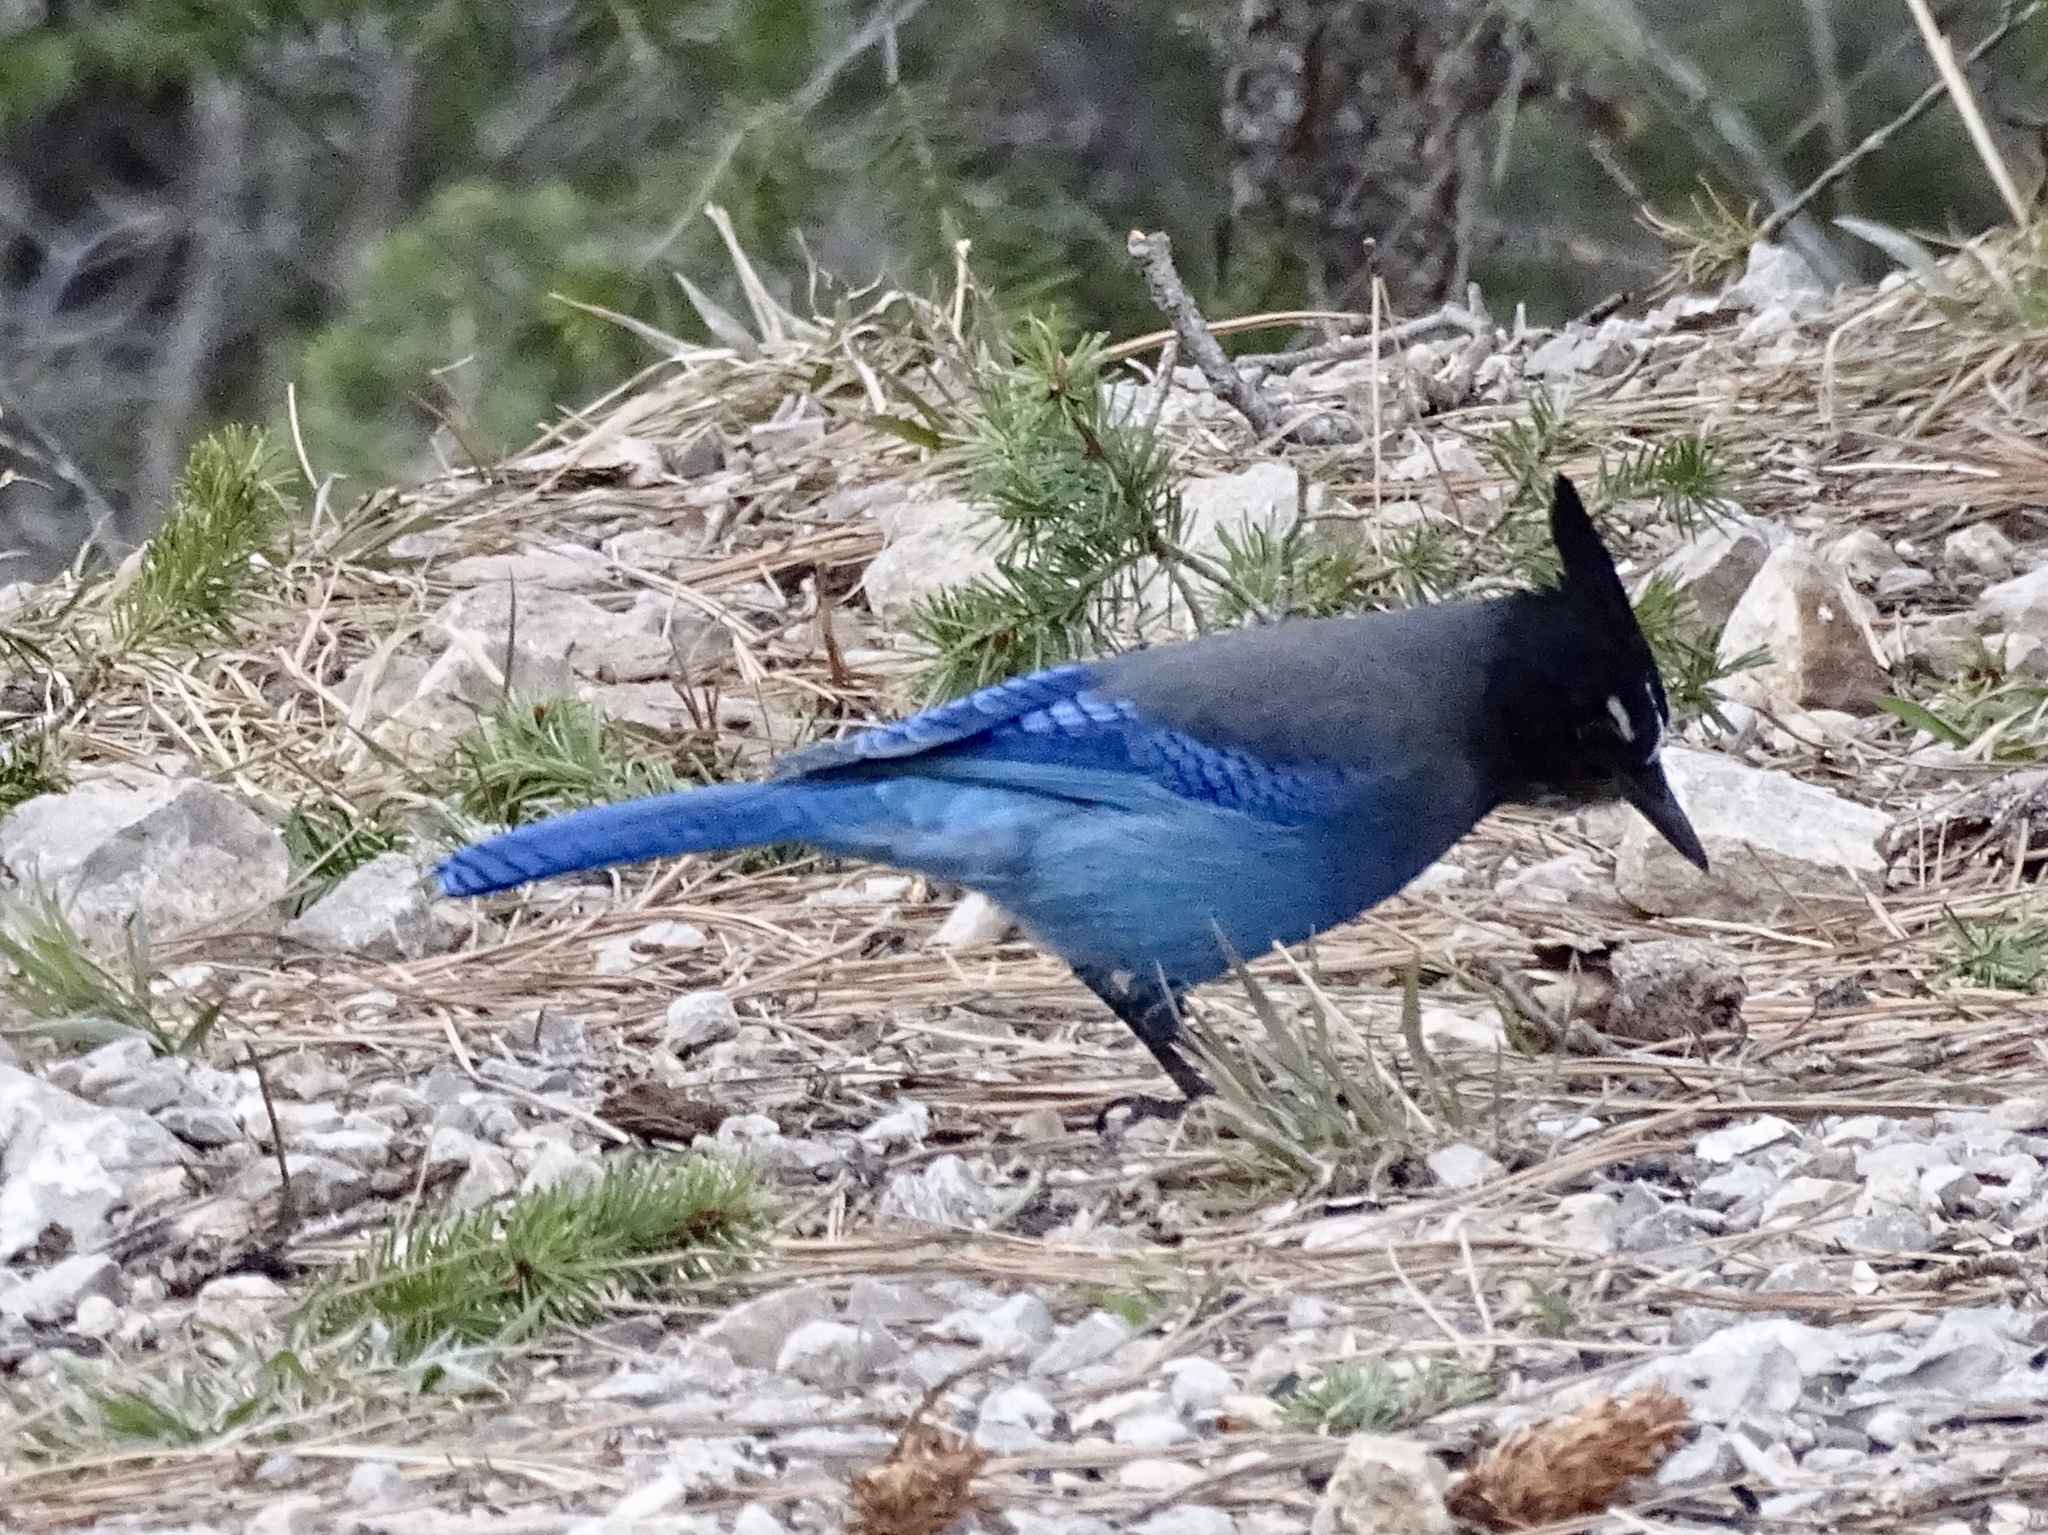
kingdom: Animalia
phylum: Chordata
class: Aves
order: Passeriformes
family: Corvidae
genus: Cyanocitta
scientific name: Cyanocitta stelleri
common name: Steller's jay
